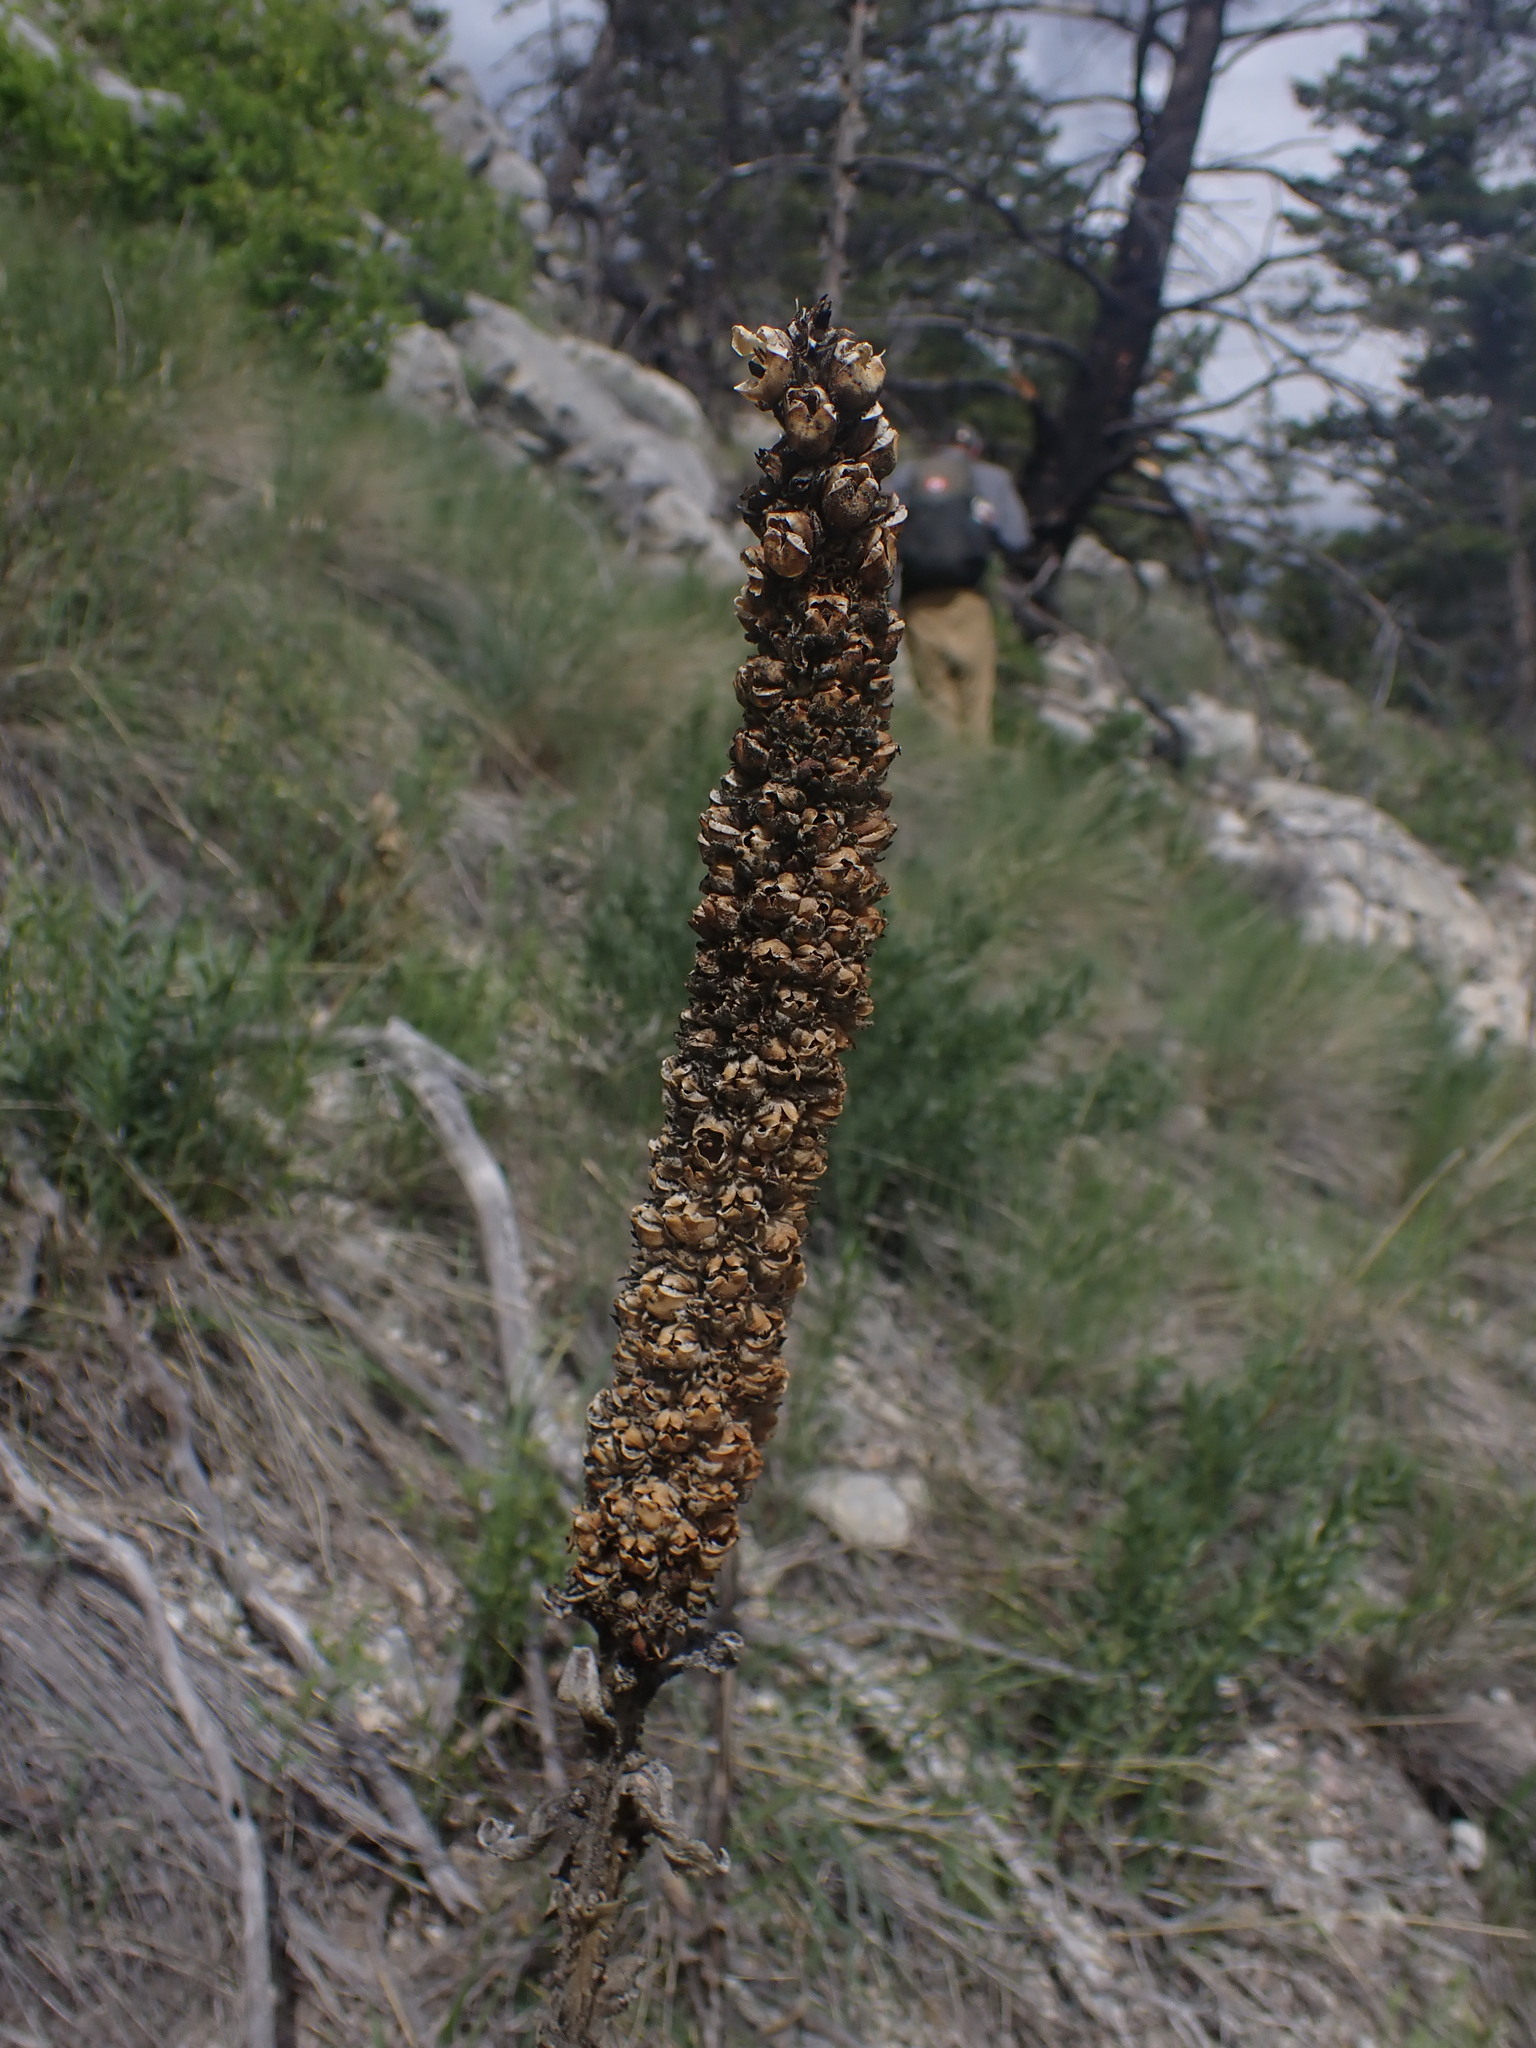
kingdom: Plantae
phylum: Tracheophyta
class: Magnoliopsida
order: Lamiales
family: Scrophulariaceae
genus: Verbascum
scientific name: Verbascum thapsus
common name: Common mullein
